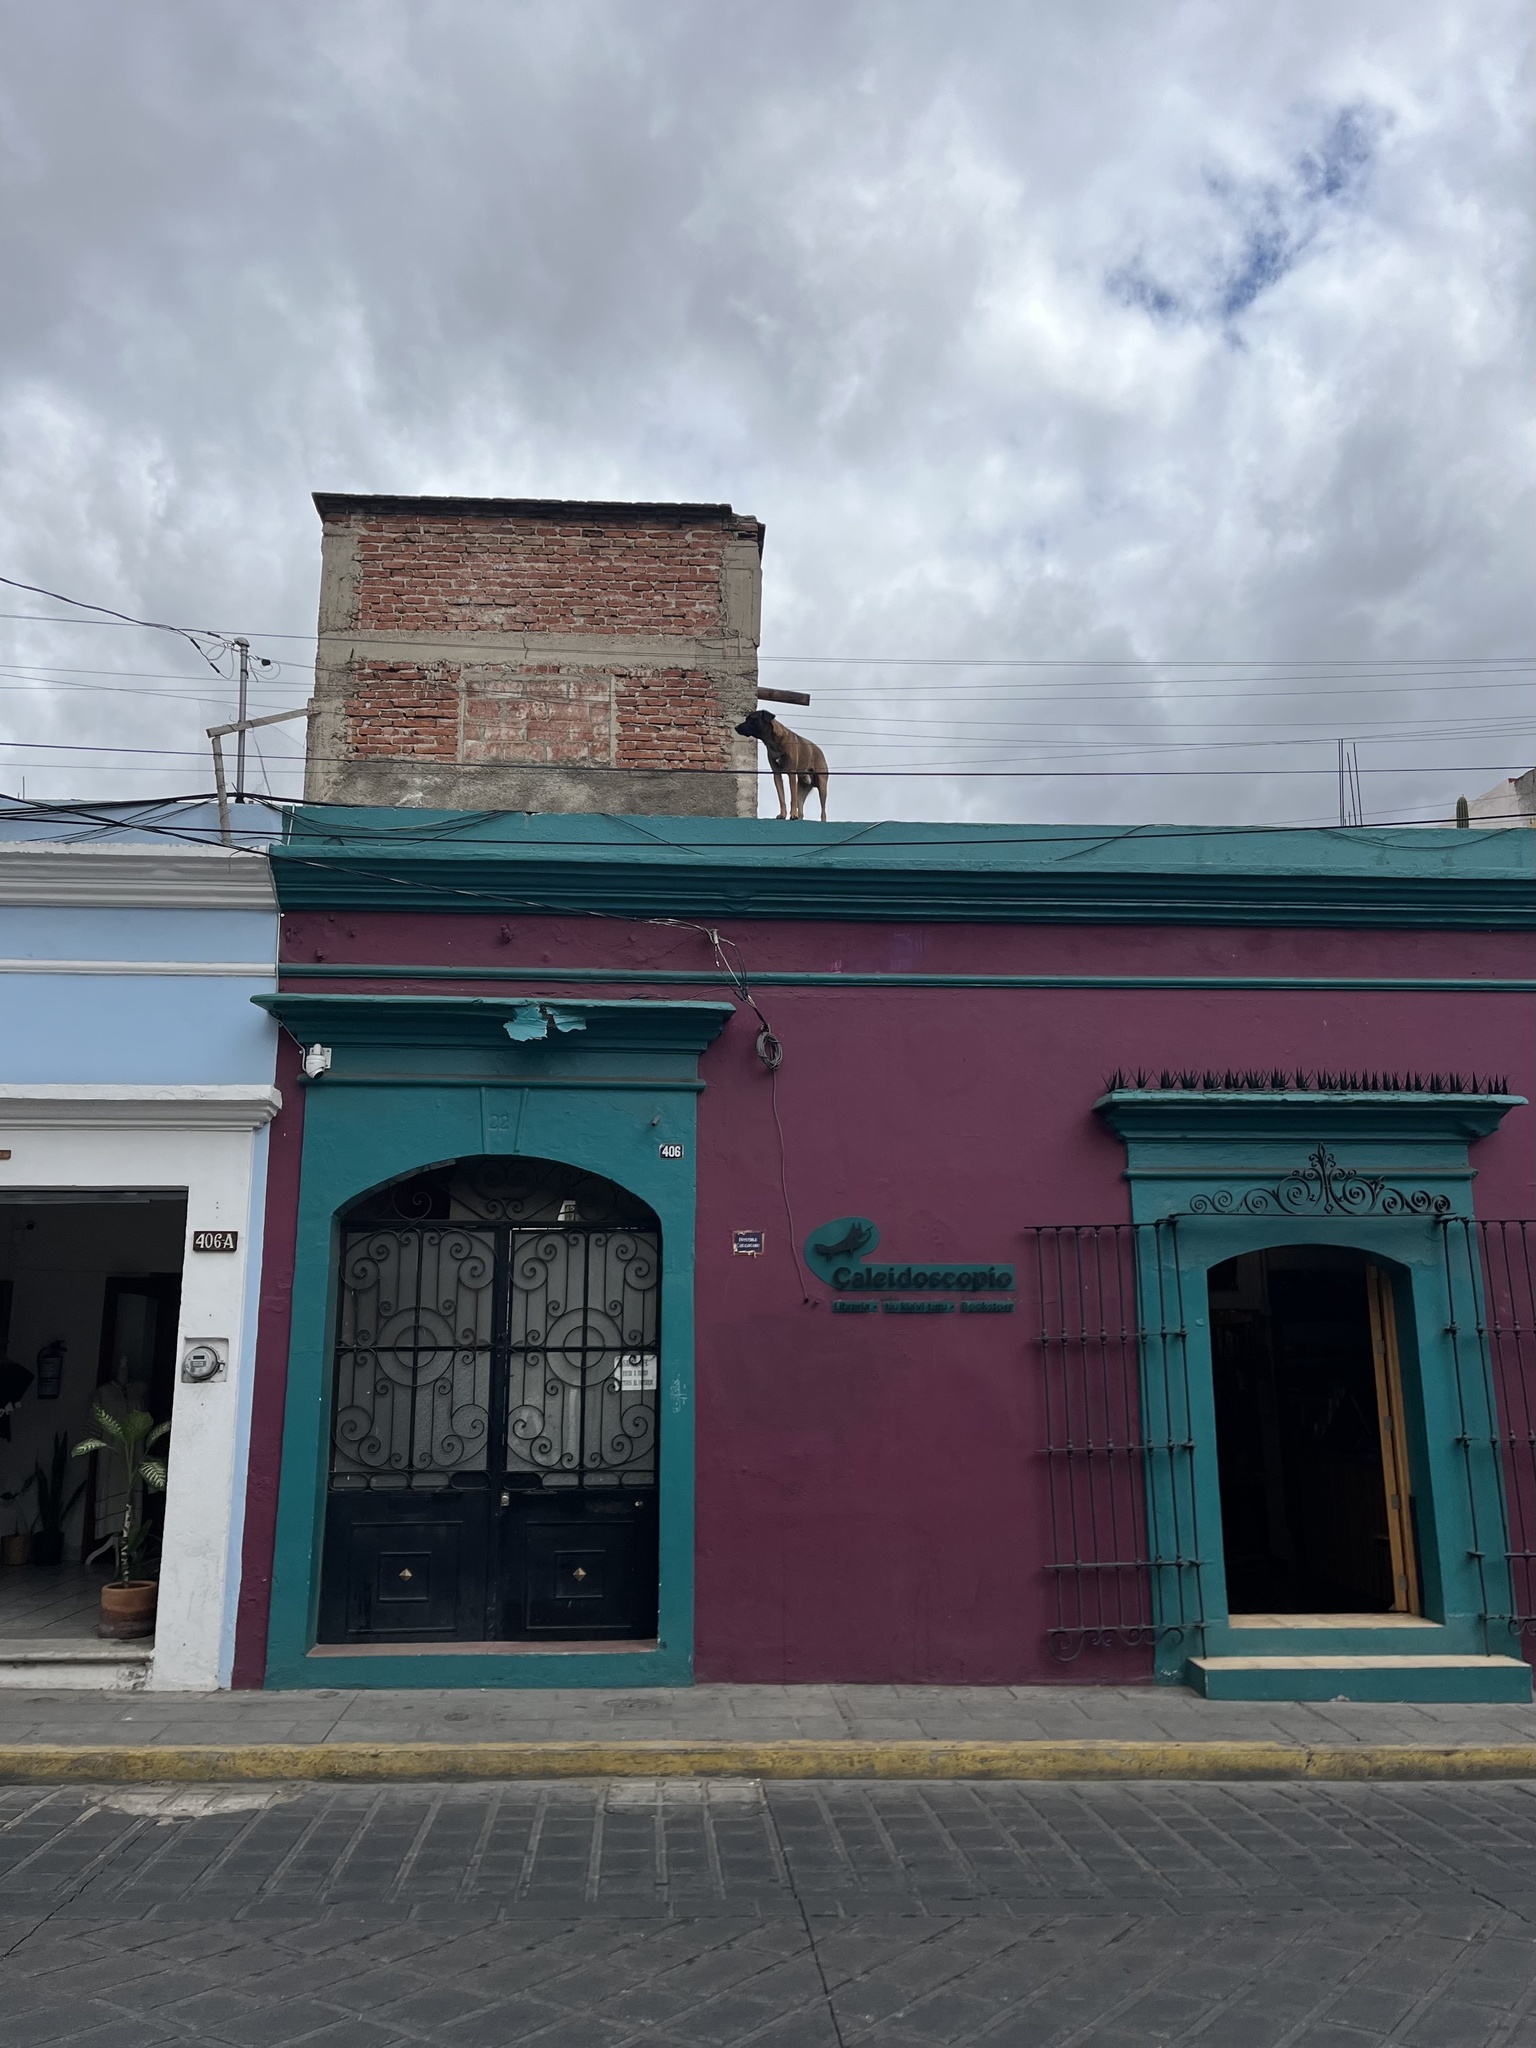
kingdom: Animalia
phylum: Chordata
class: Mammalia
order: Carnivora
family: Canidae
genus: Canis
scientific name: Canis lupus
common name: Gray wolf
